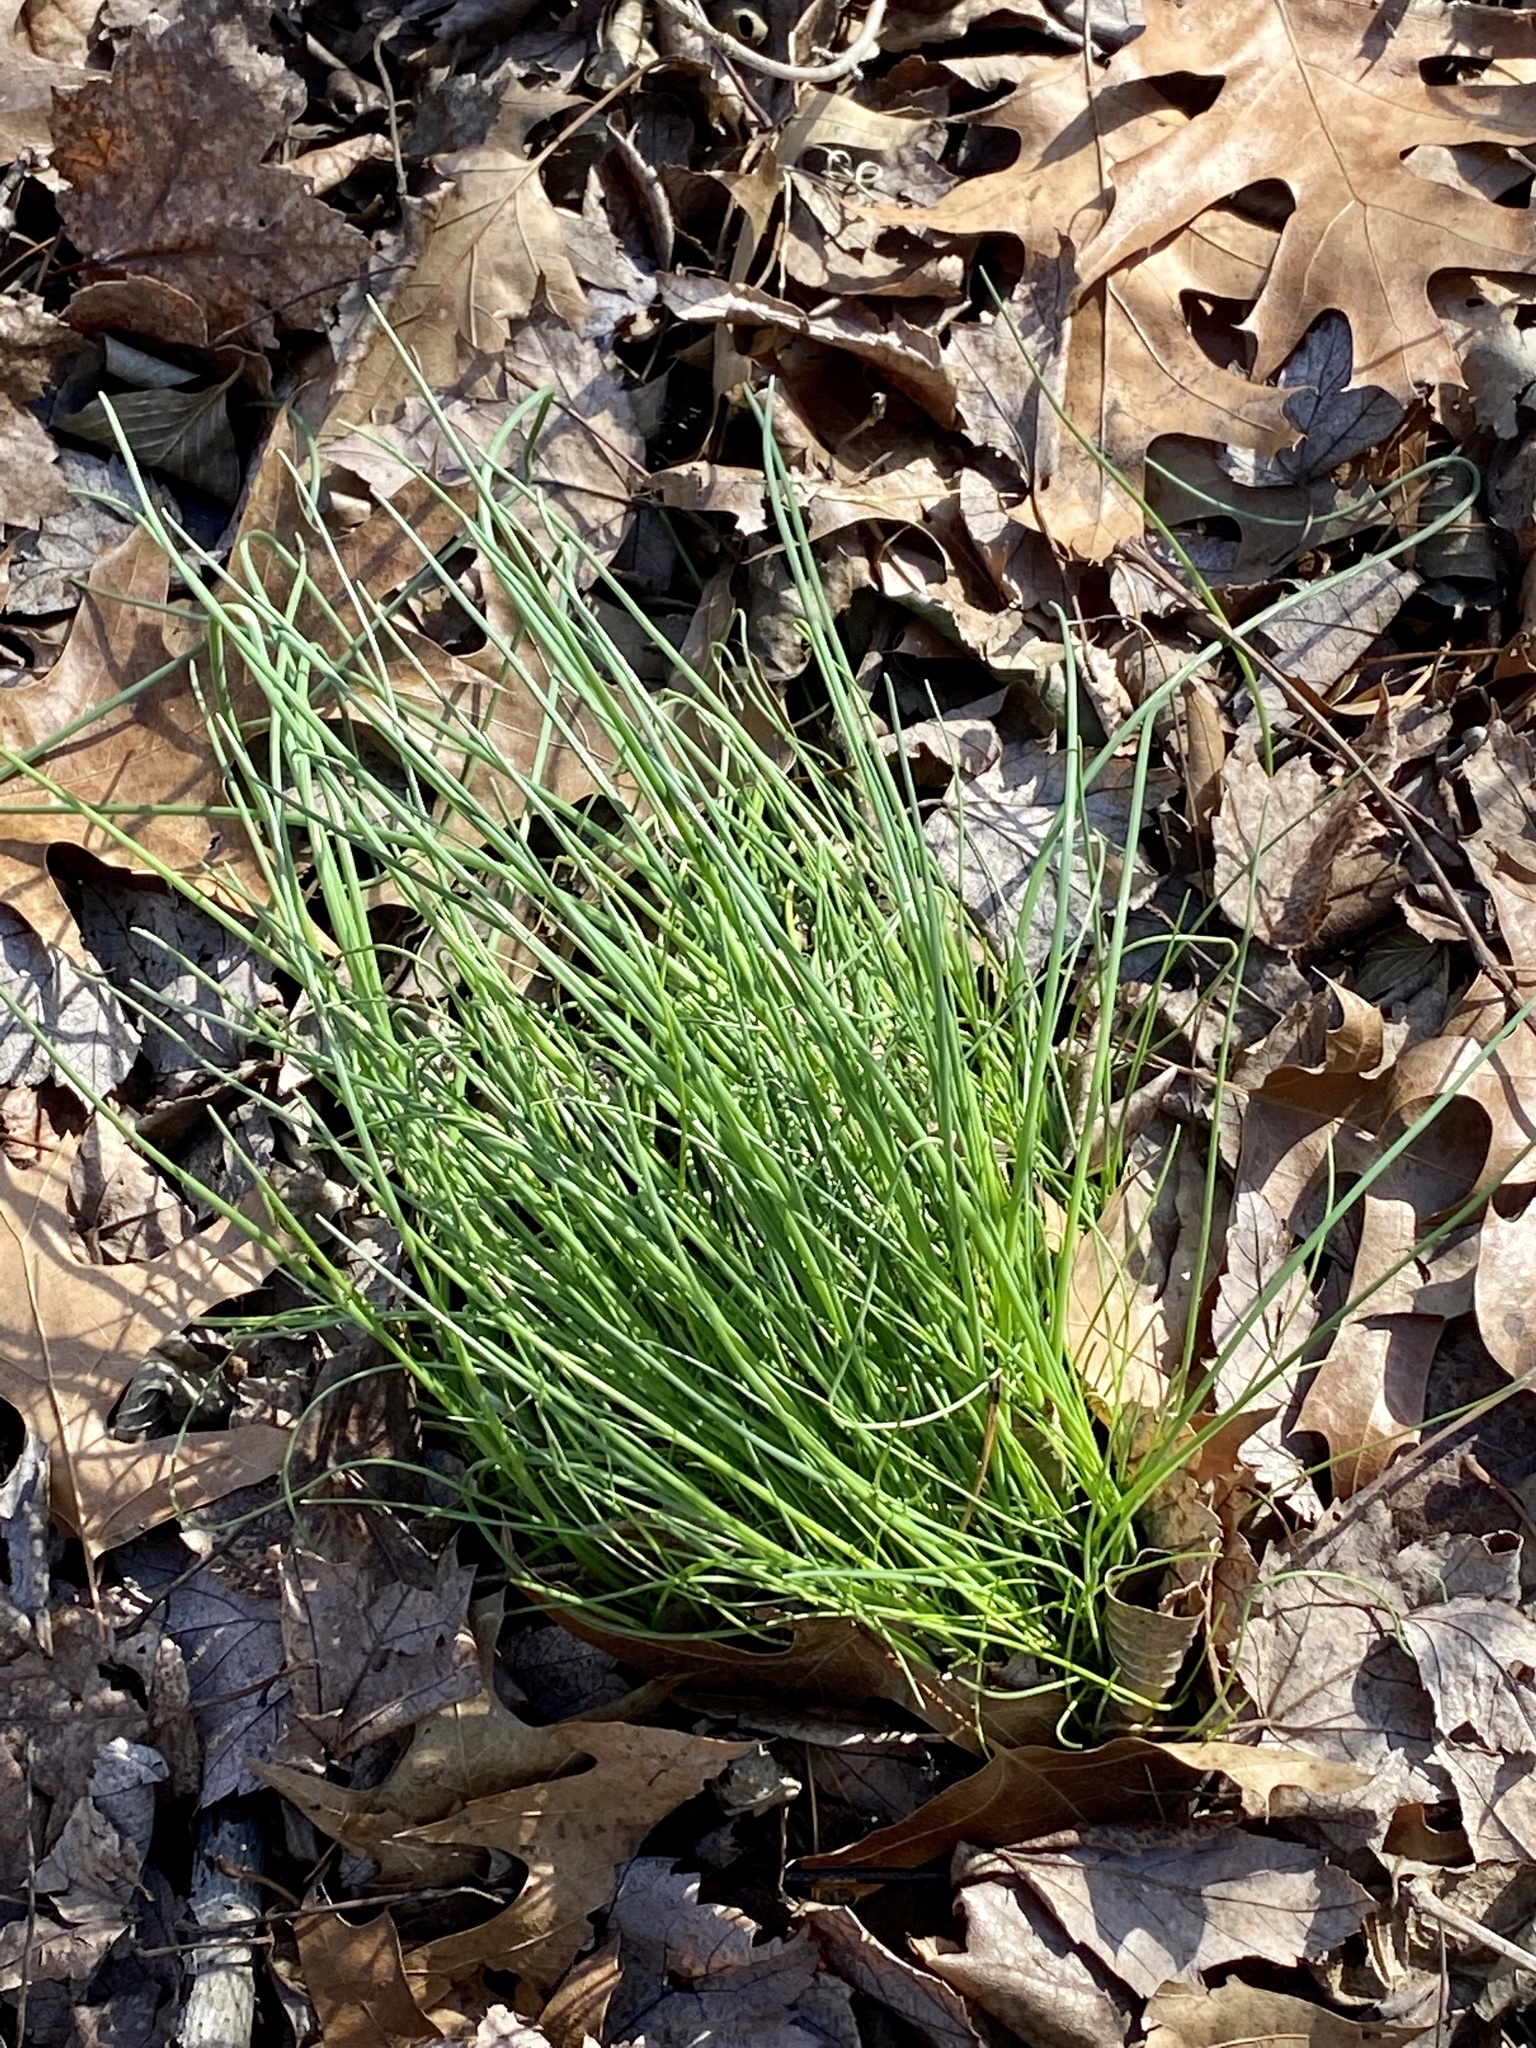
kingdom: Plantae
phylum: Tracheophyta
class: Liliopsida
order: Asparagales
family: Amaryllidaceae
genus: Allium
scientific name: Allium vineale
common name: Crow garlic
